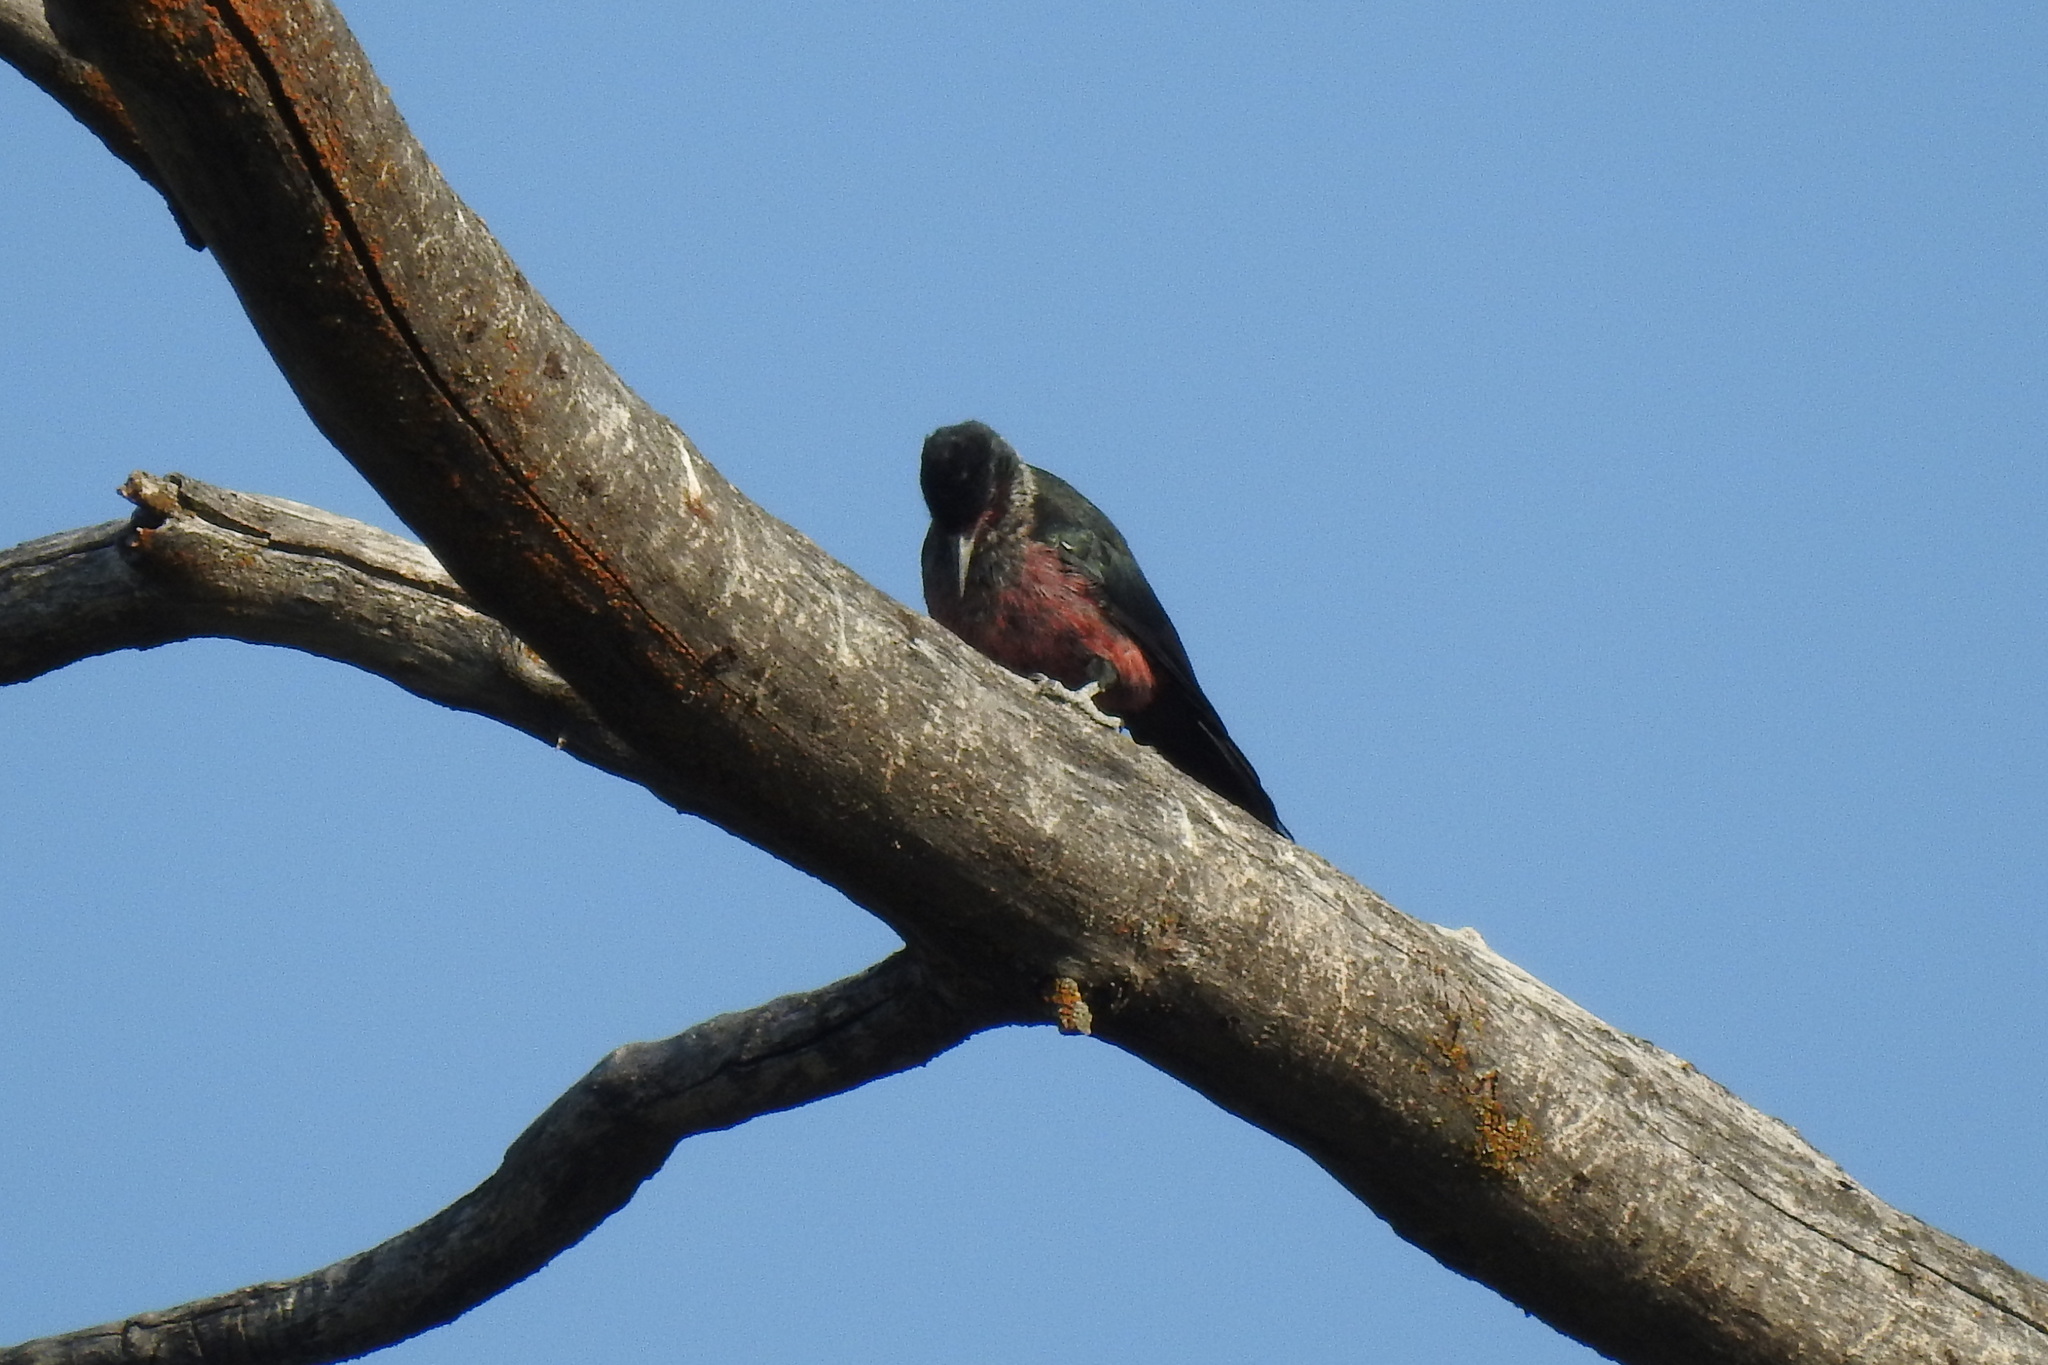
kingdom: Animalia
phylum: Chordata
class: Aves
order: Piciformes
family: Picidae
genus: Melanerpes
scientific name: Melanerpes lewis
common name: Lewis's woodpecker
